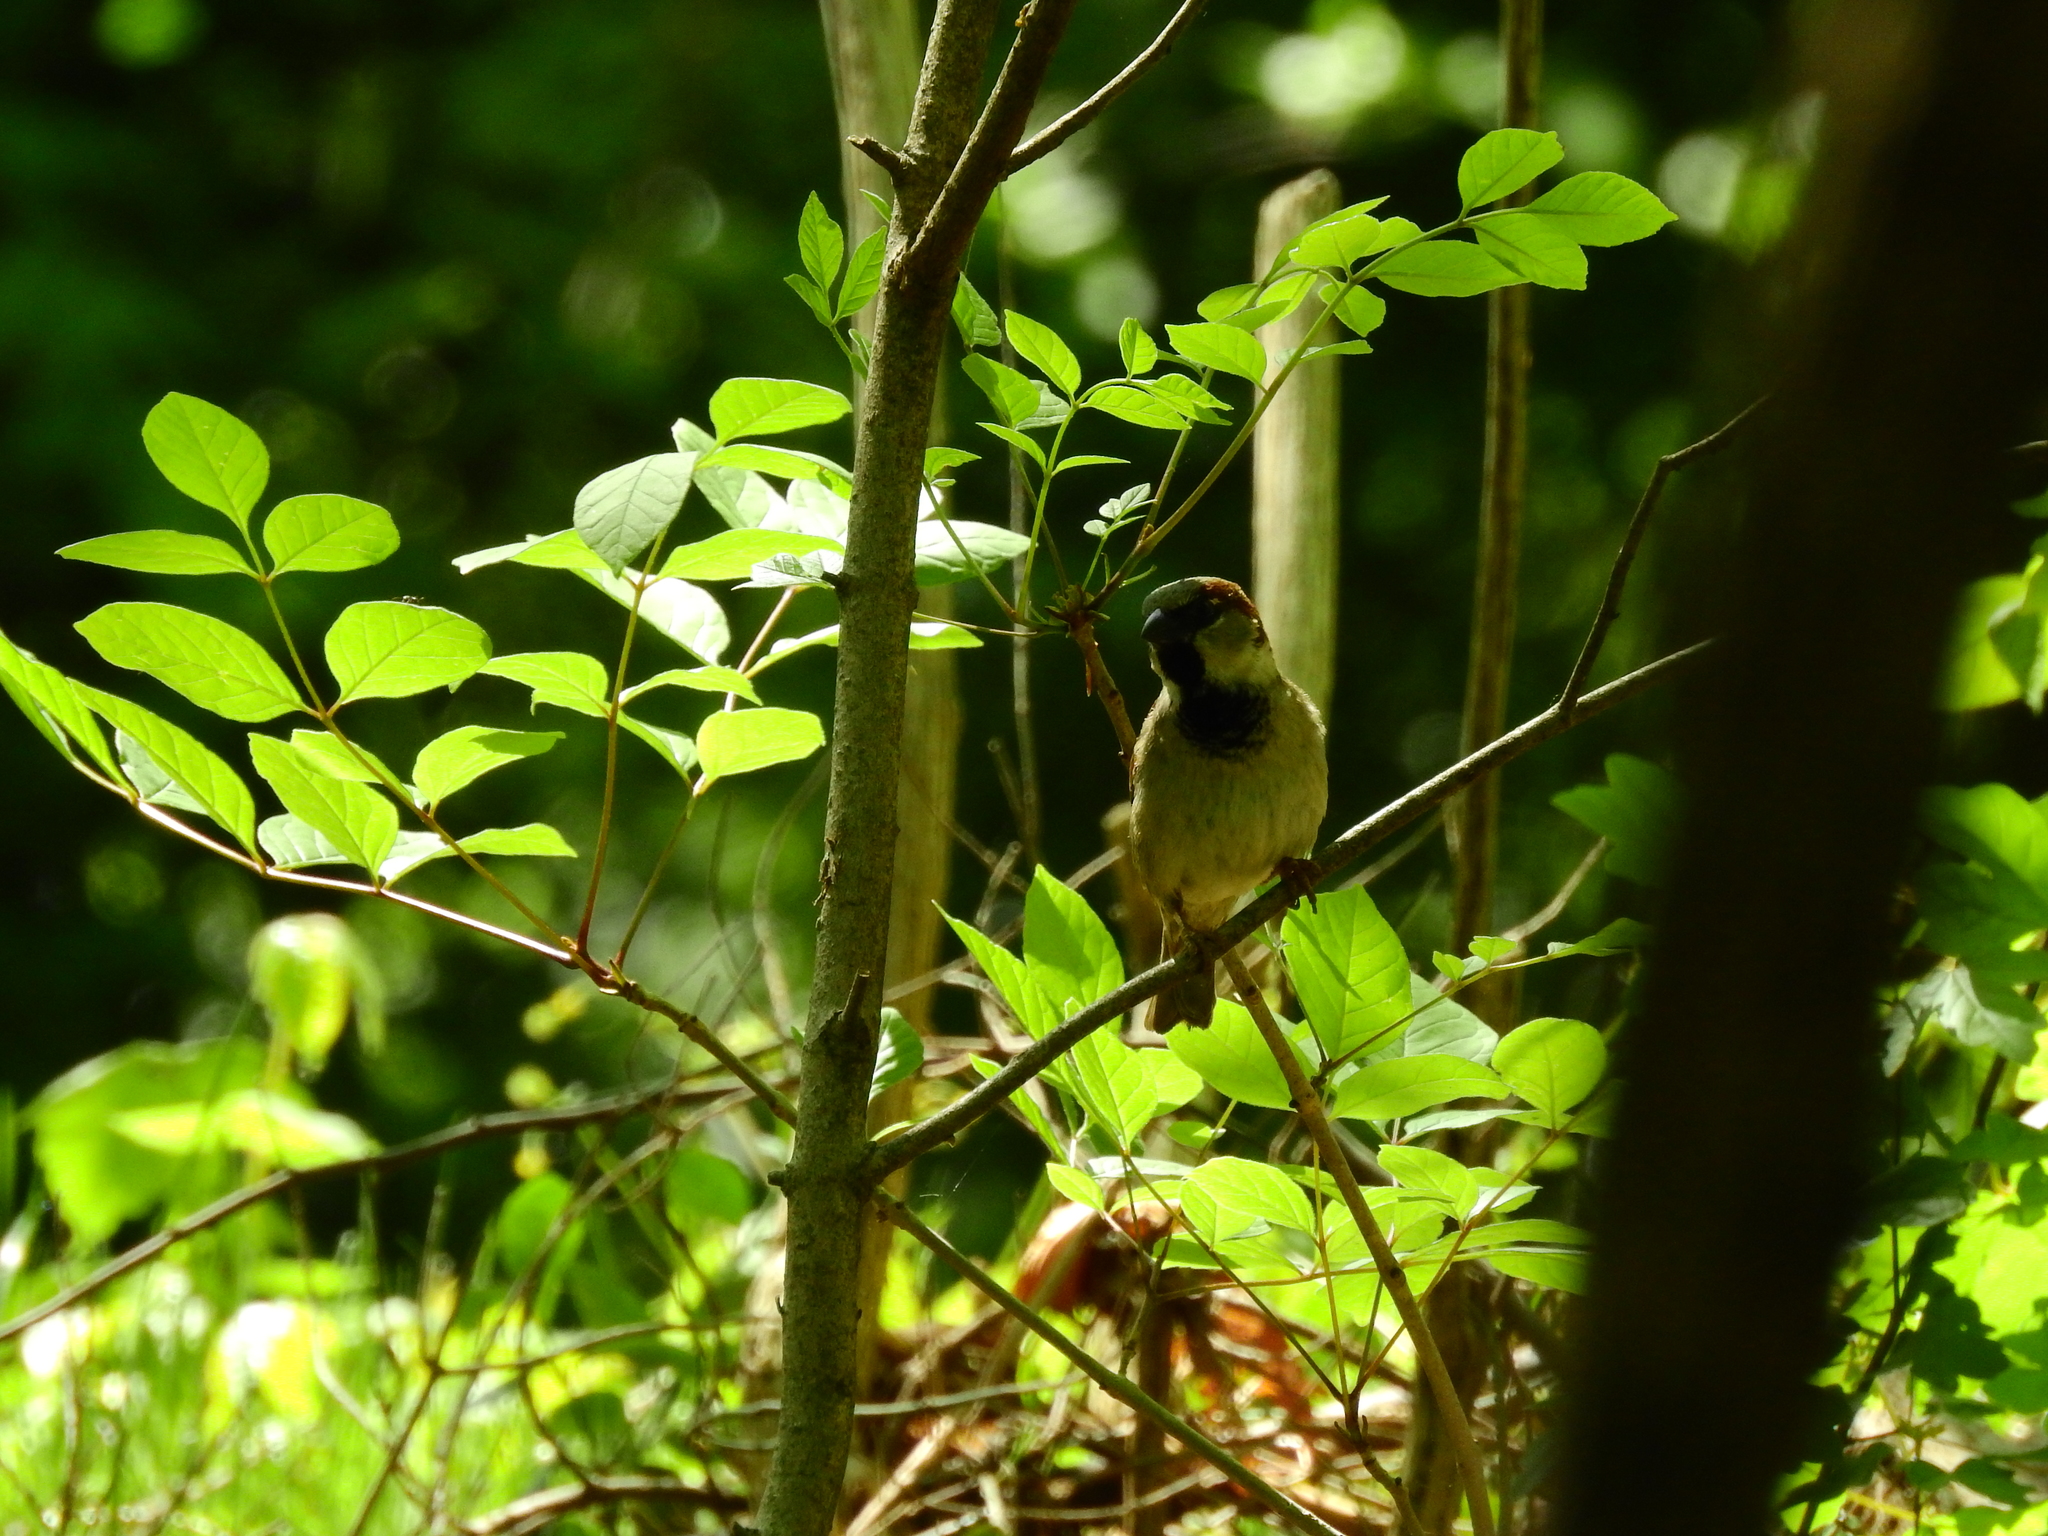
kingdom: Animalia
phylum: Chordata
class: Aves
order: Passeriformes
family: Passeridae
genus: Passer
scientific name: Passer domesticus
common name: House sparrow
